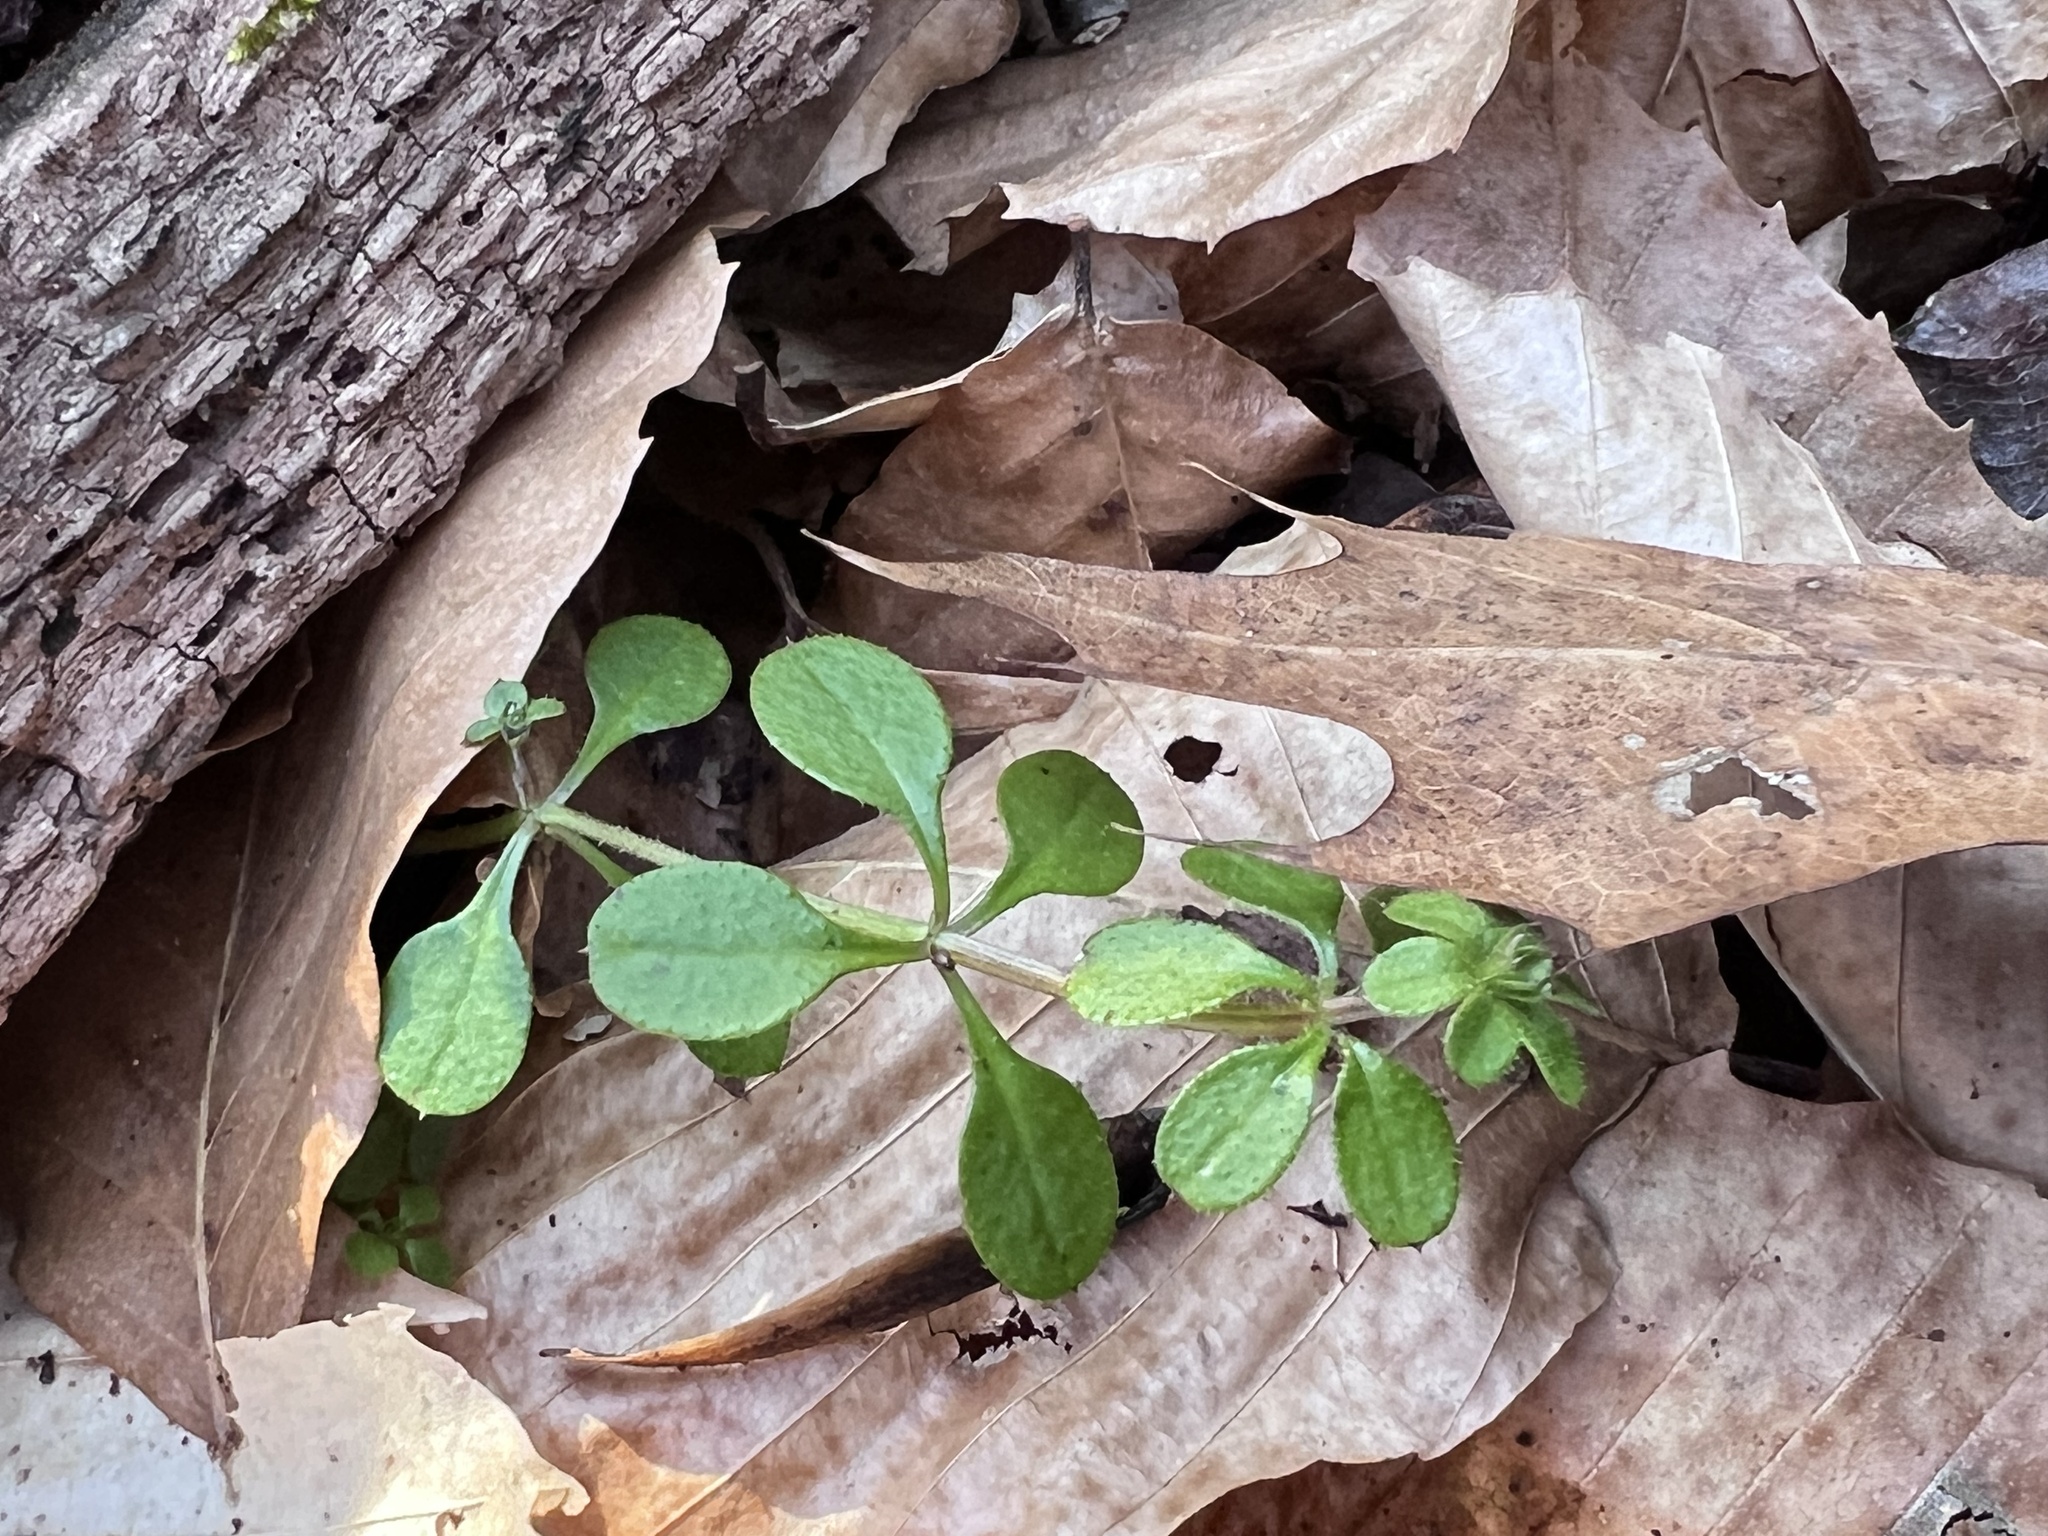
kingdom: Plantae
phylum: Tracheophyta
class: Magnoliopsida
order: Gentianales
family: Rubiaceae
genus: Galium
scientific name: Galium aparine
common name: Cleavers
